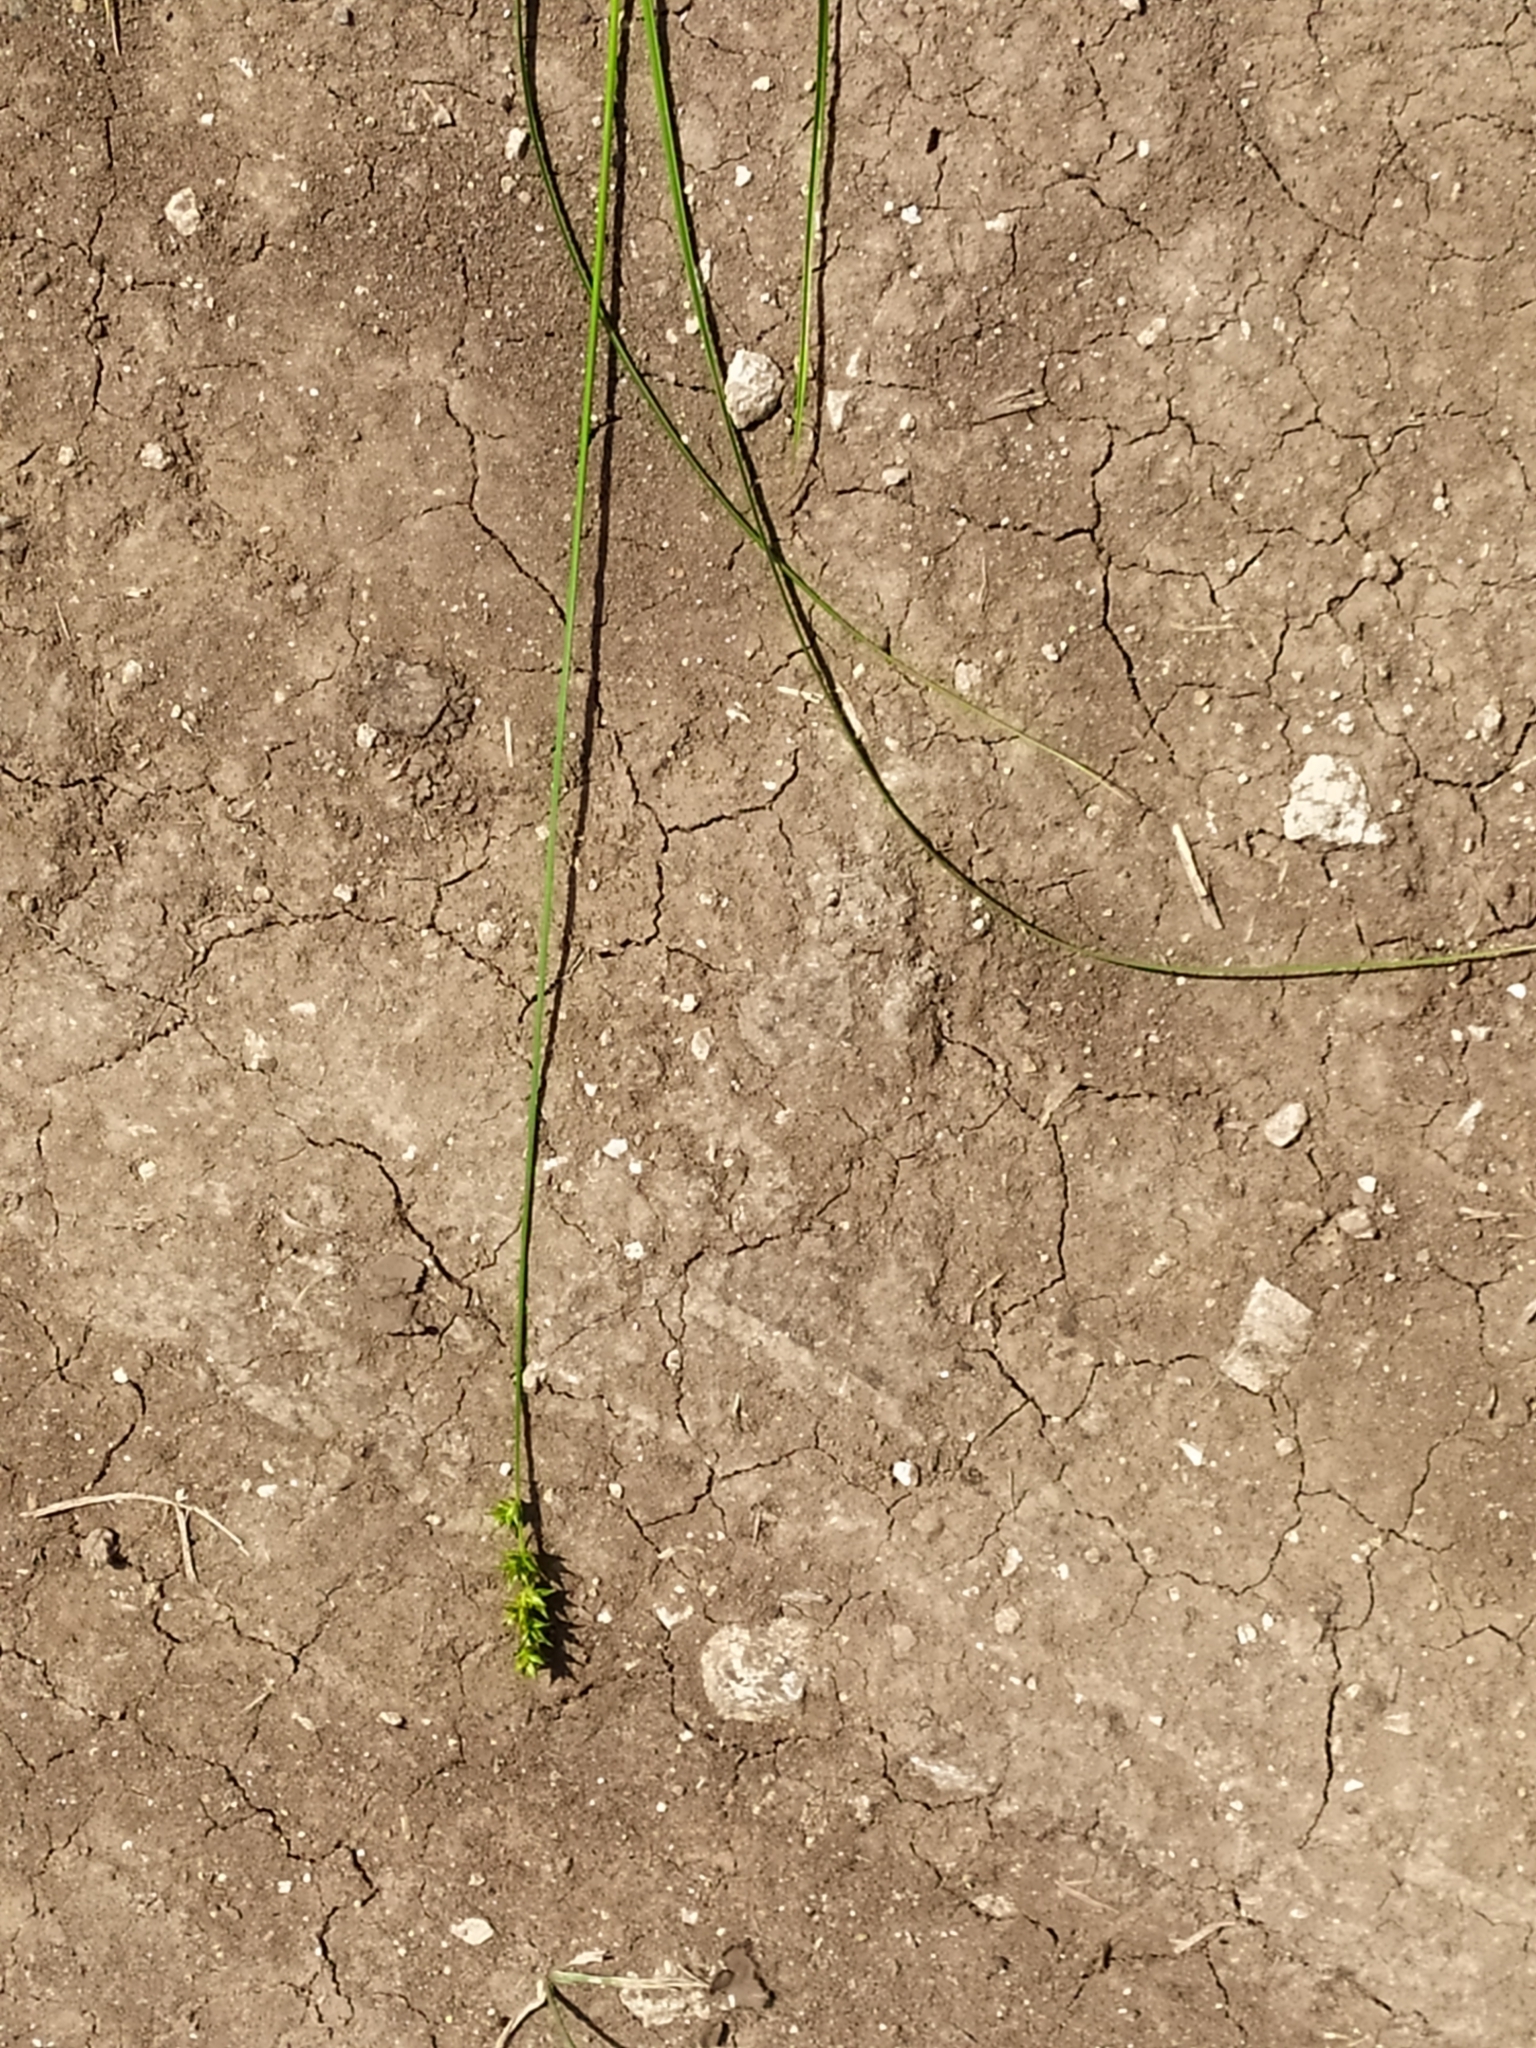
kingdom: Plantae
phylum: Tracheophyta
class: Liliopsida
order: Poales
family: Cyperaceae
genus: Carex
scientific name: Carex spicata
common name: Spiked sedge
